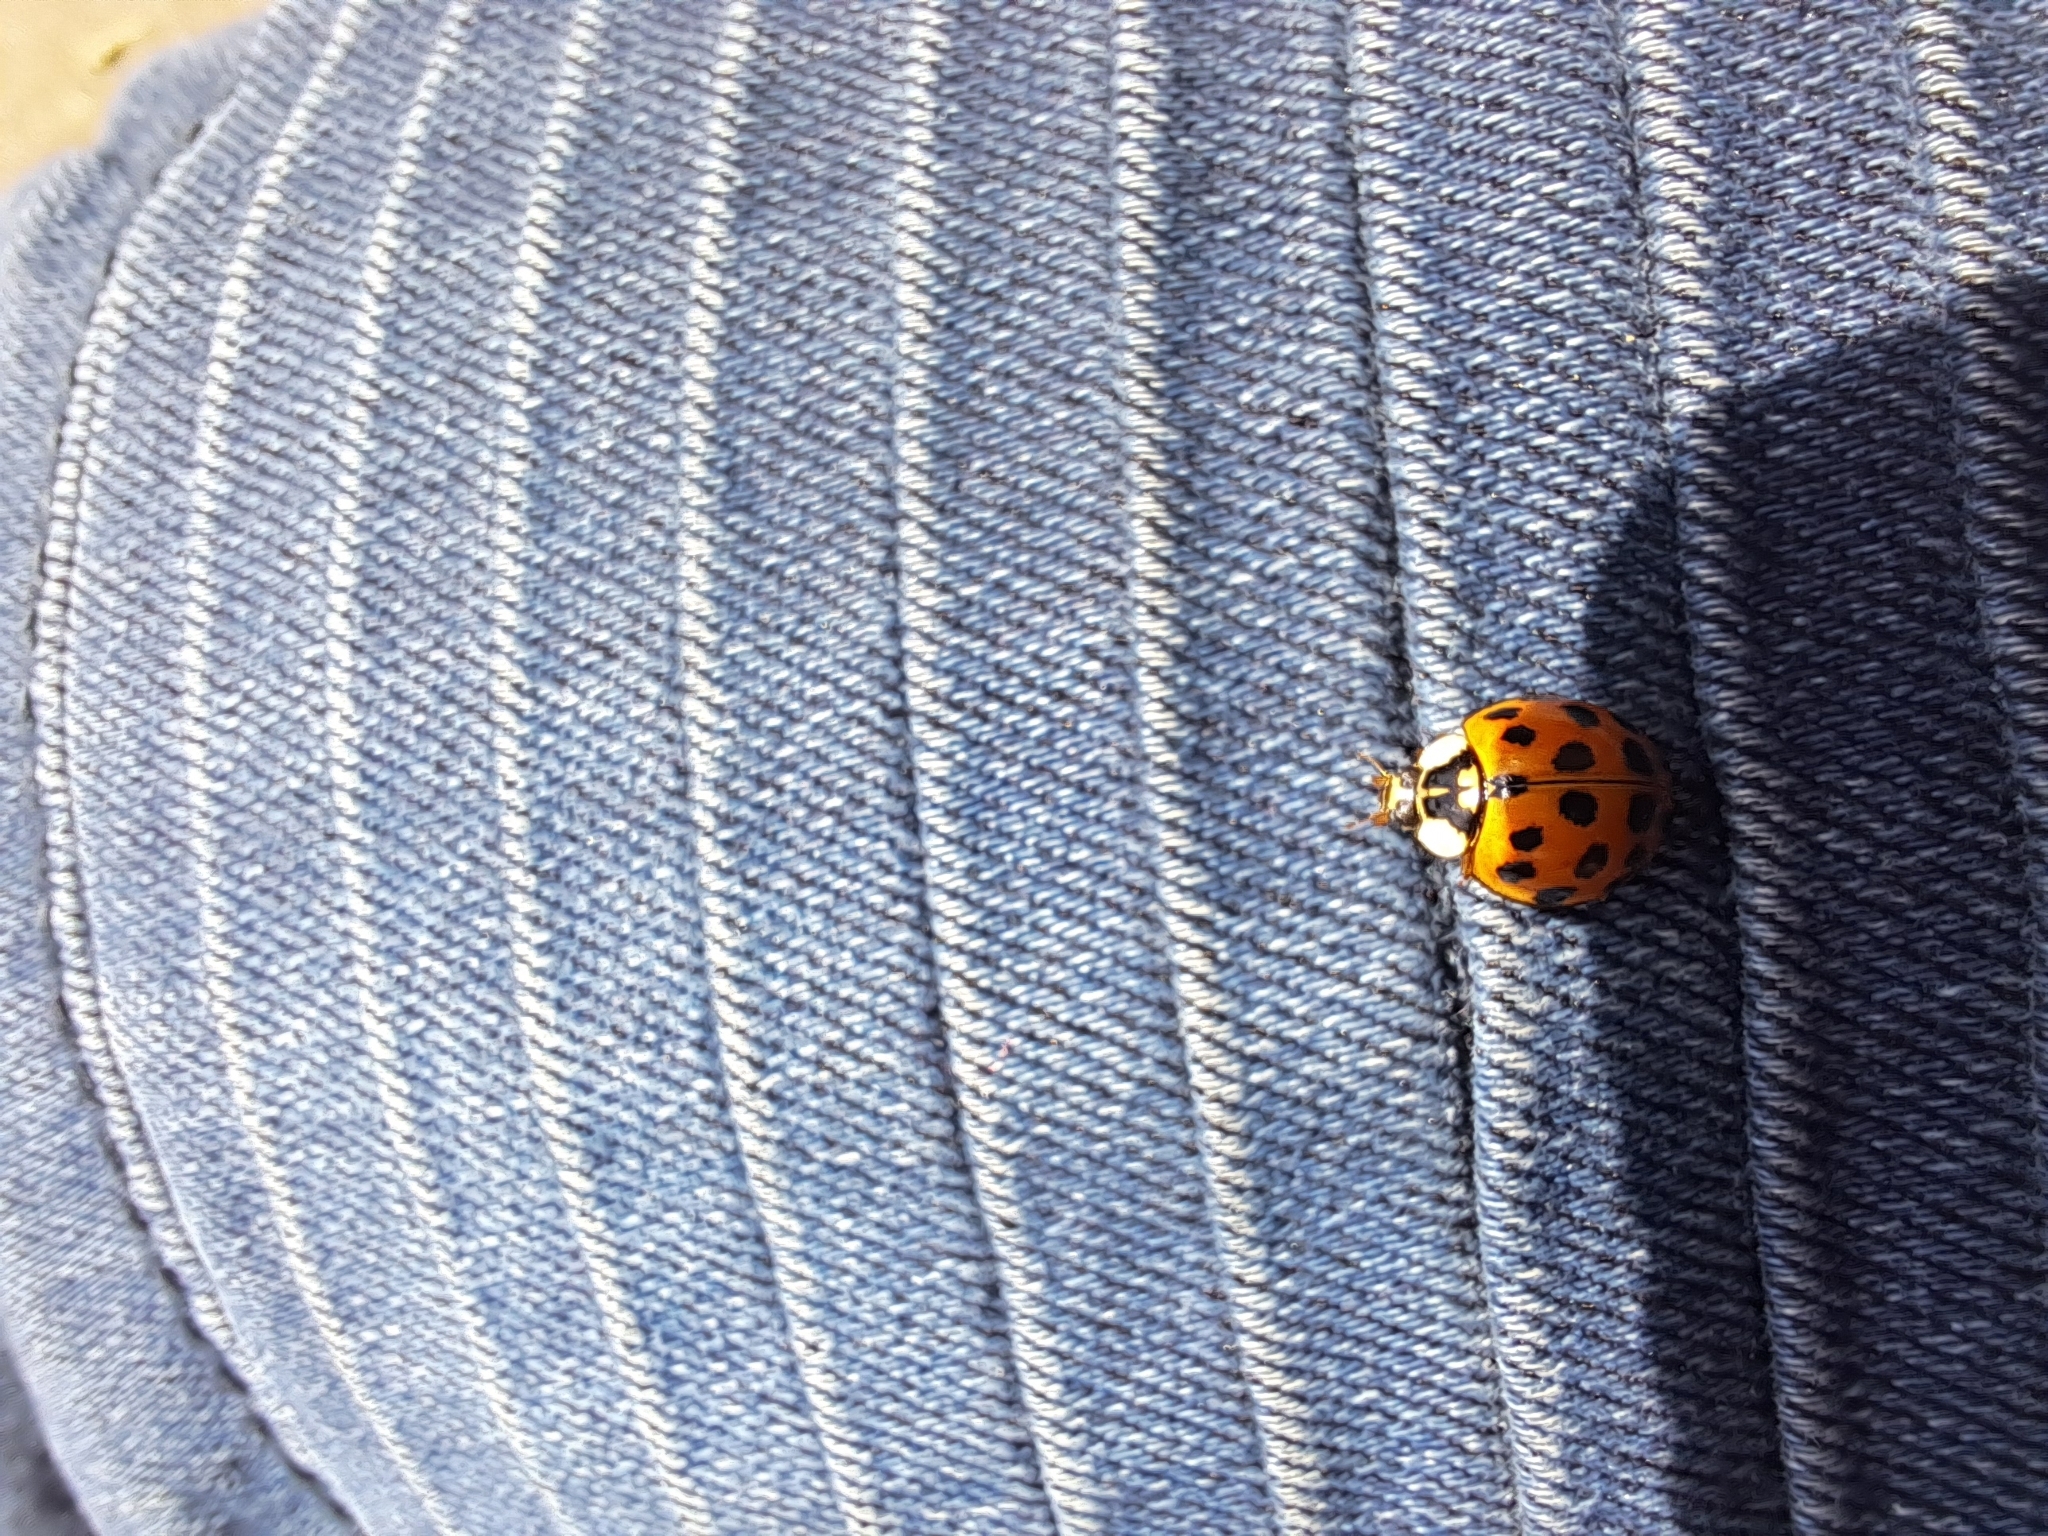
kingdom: Animalia
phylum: Arthropoda
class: Insecta
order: Coleoptera
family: Coccinellidae
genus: Harmonia
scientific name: Harmonia axyridis
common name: Harlequin ladybird
